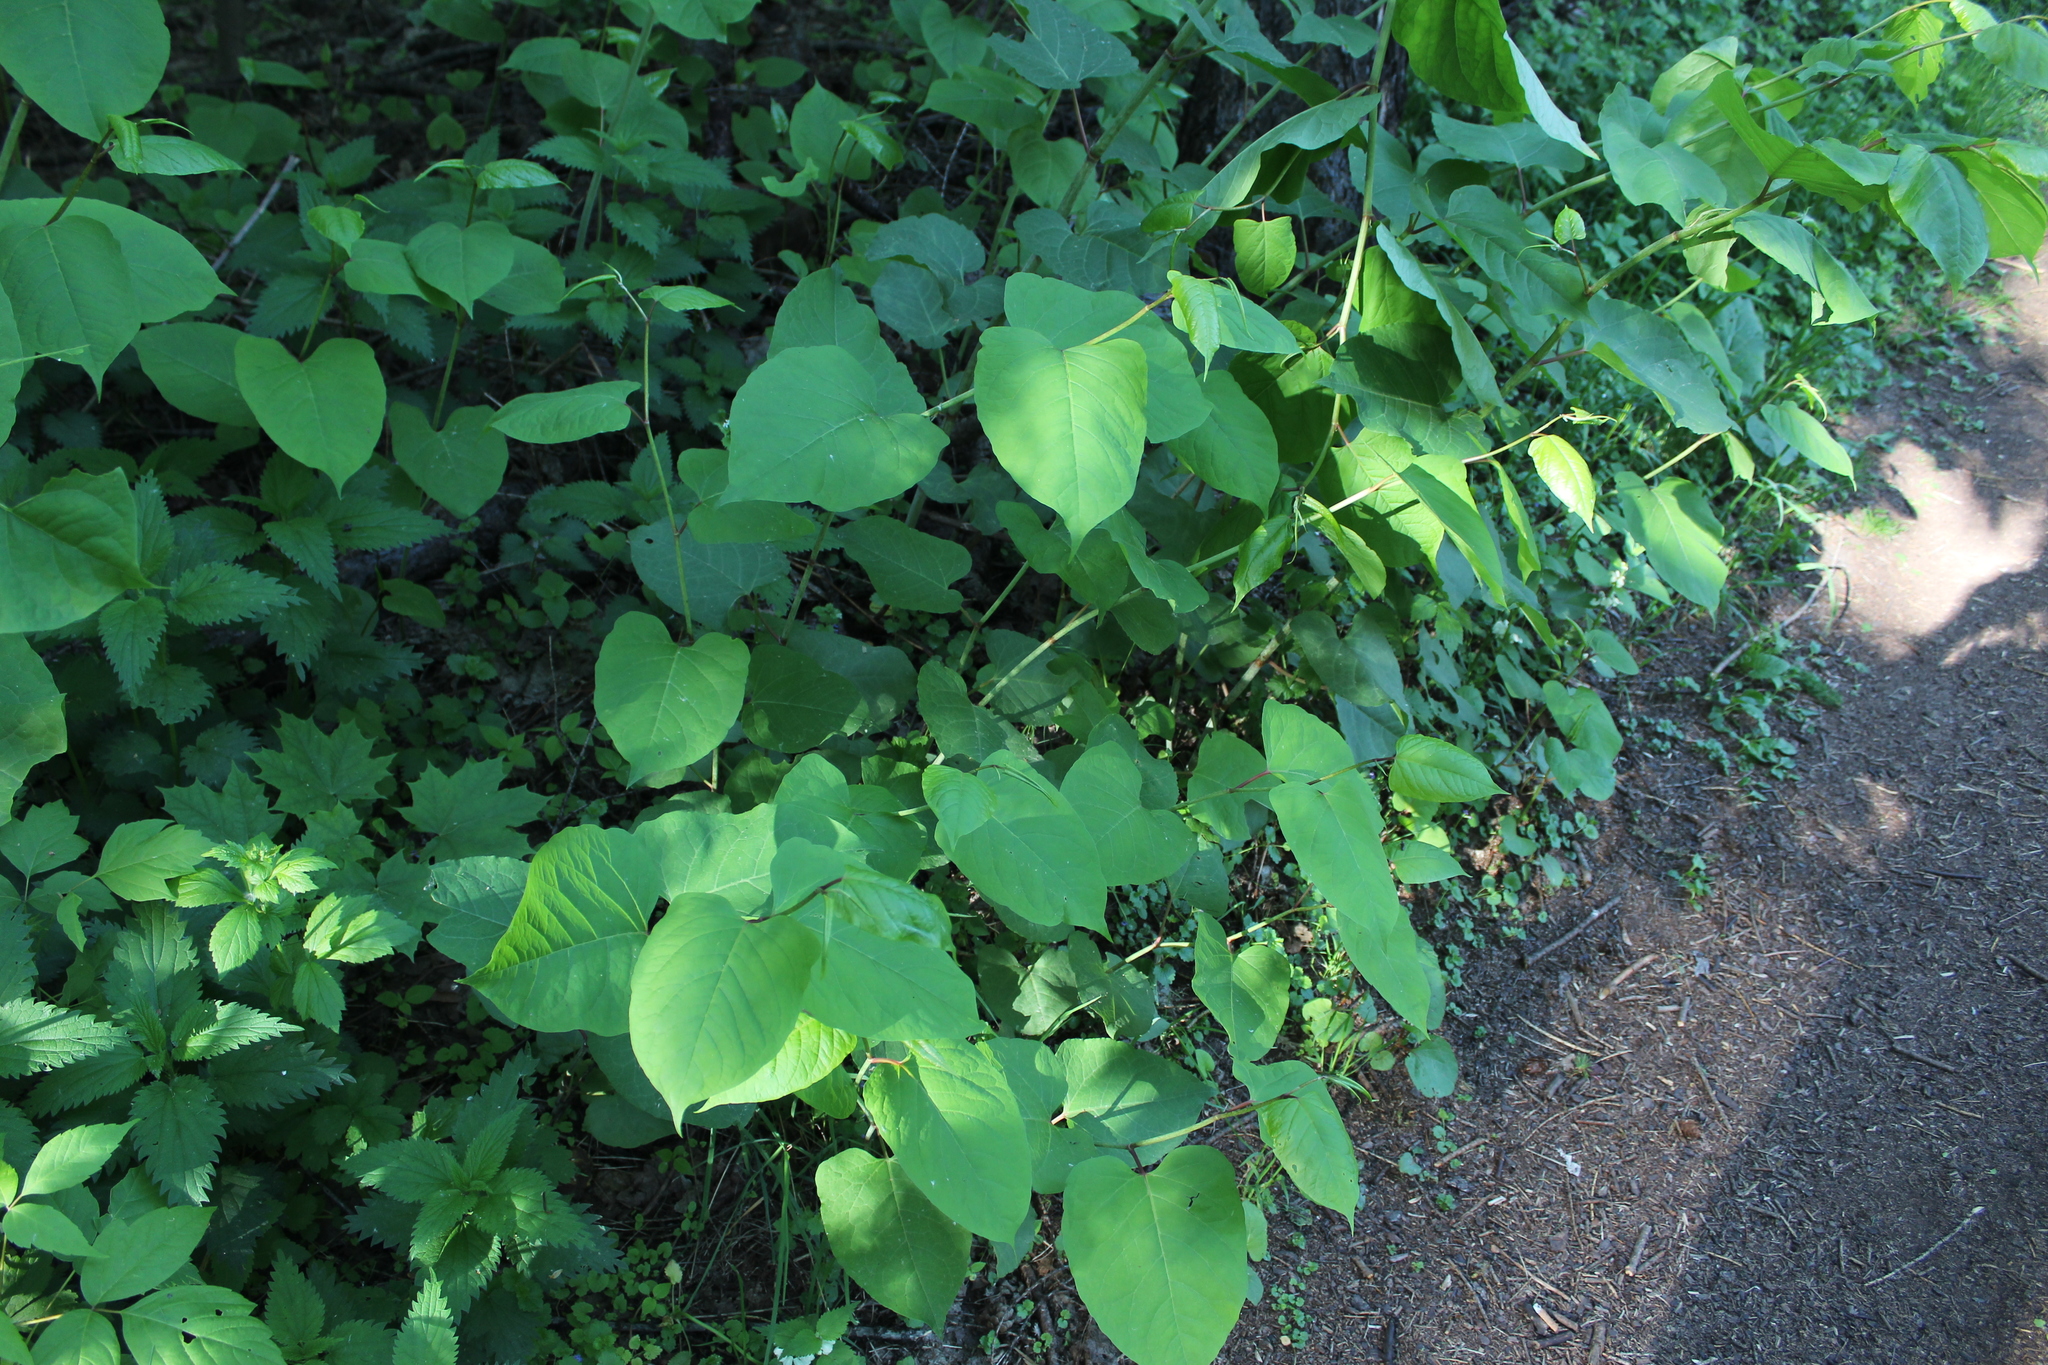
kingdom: Plantae
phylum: Tracheophyta
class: Magnoliopsida
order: Caryophyllales
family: Polygonaceae
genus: Reynoutria
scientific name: Reynoutria bohemica
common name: Bohemian knotweed
